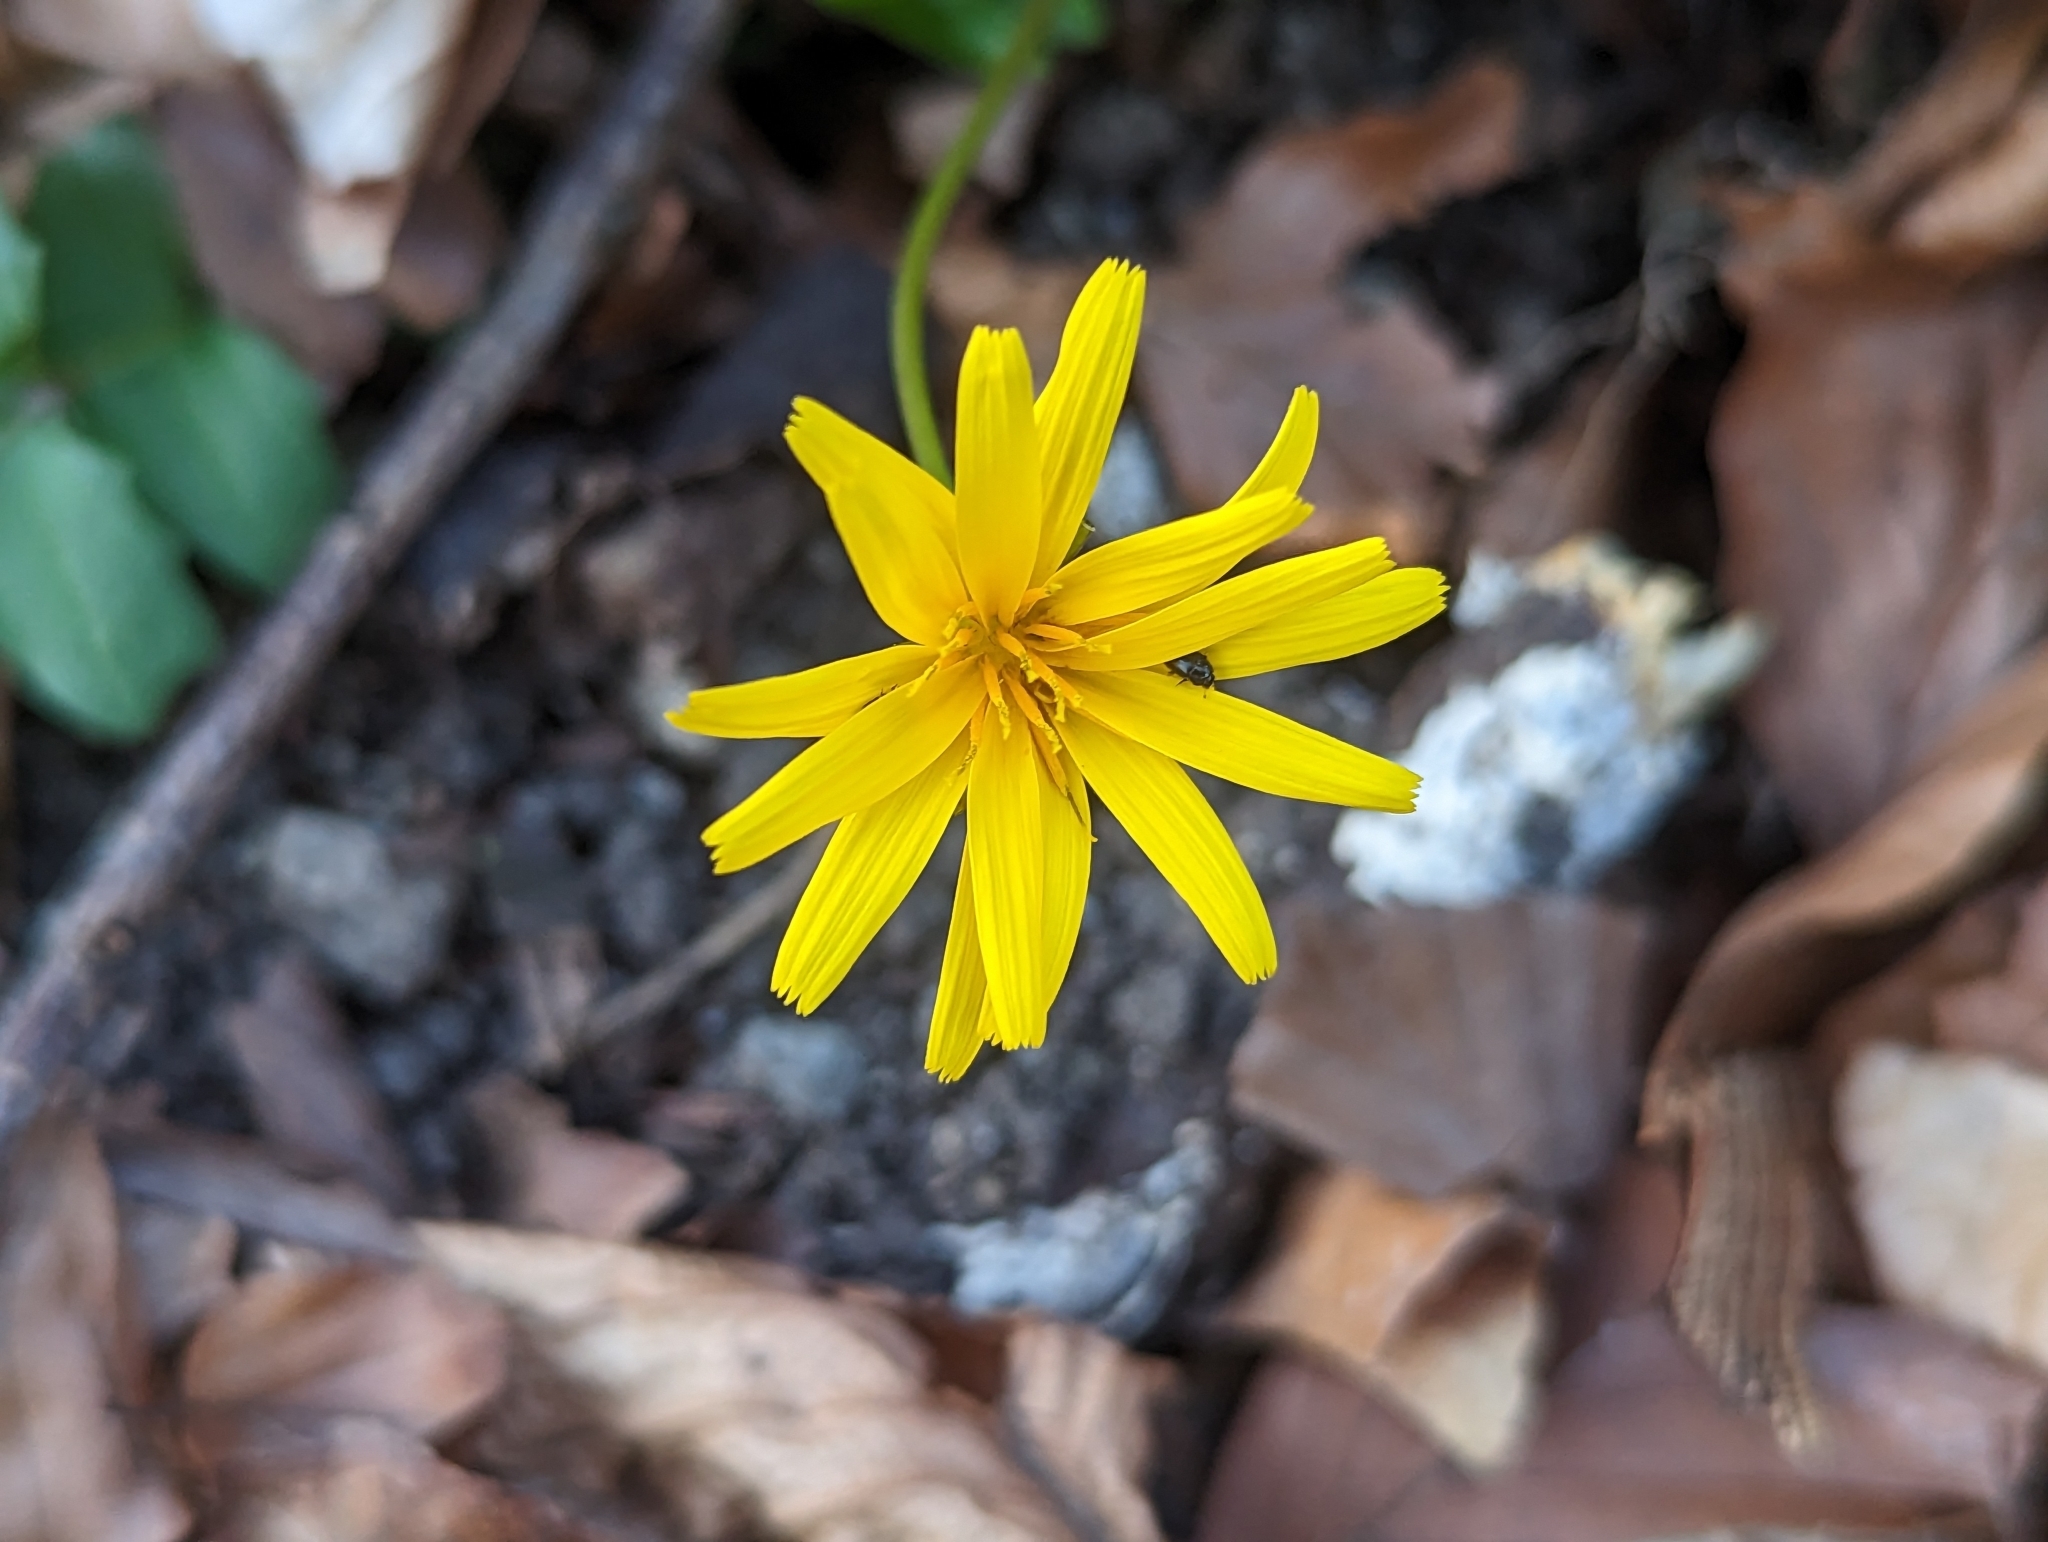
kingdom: Plantae
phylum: Tracheophyta
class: Magnoliopsida
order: Asterales
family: Asteraceae
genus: Aposeris
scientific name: Aposeris foetida
